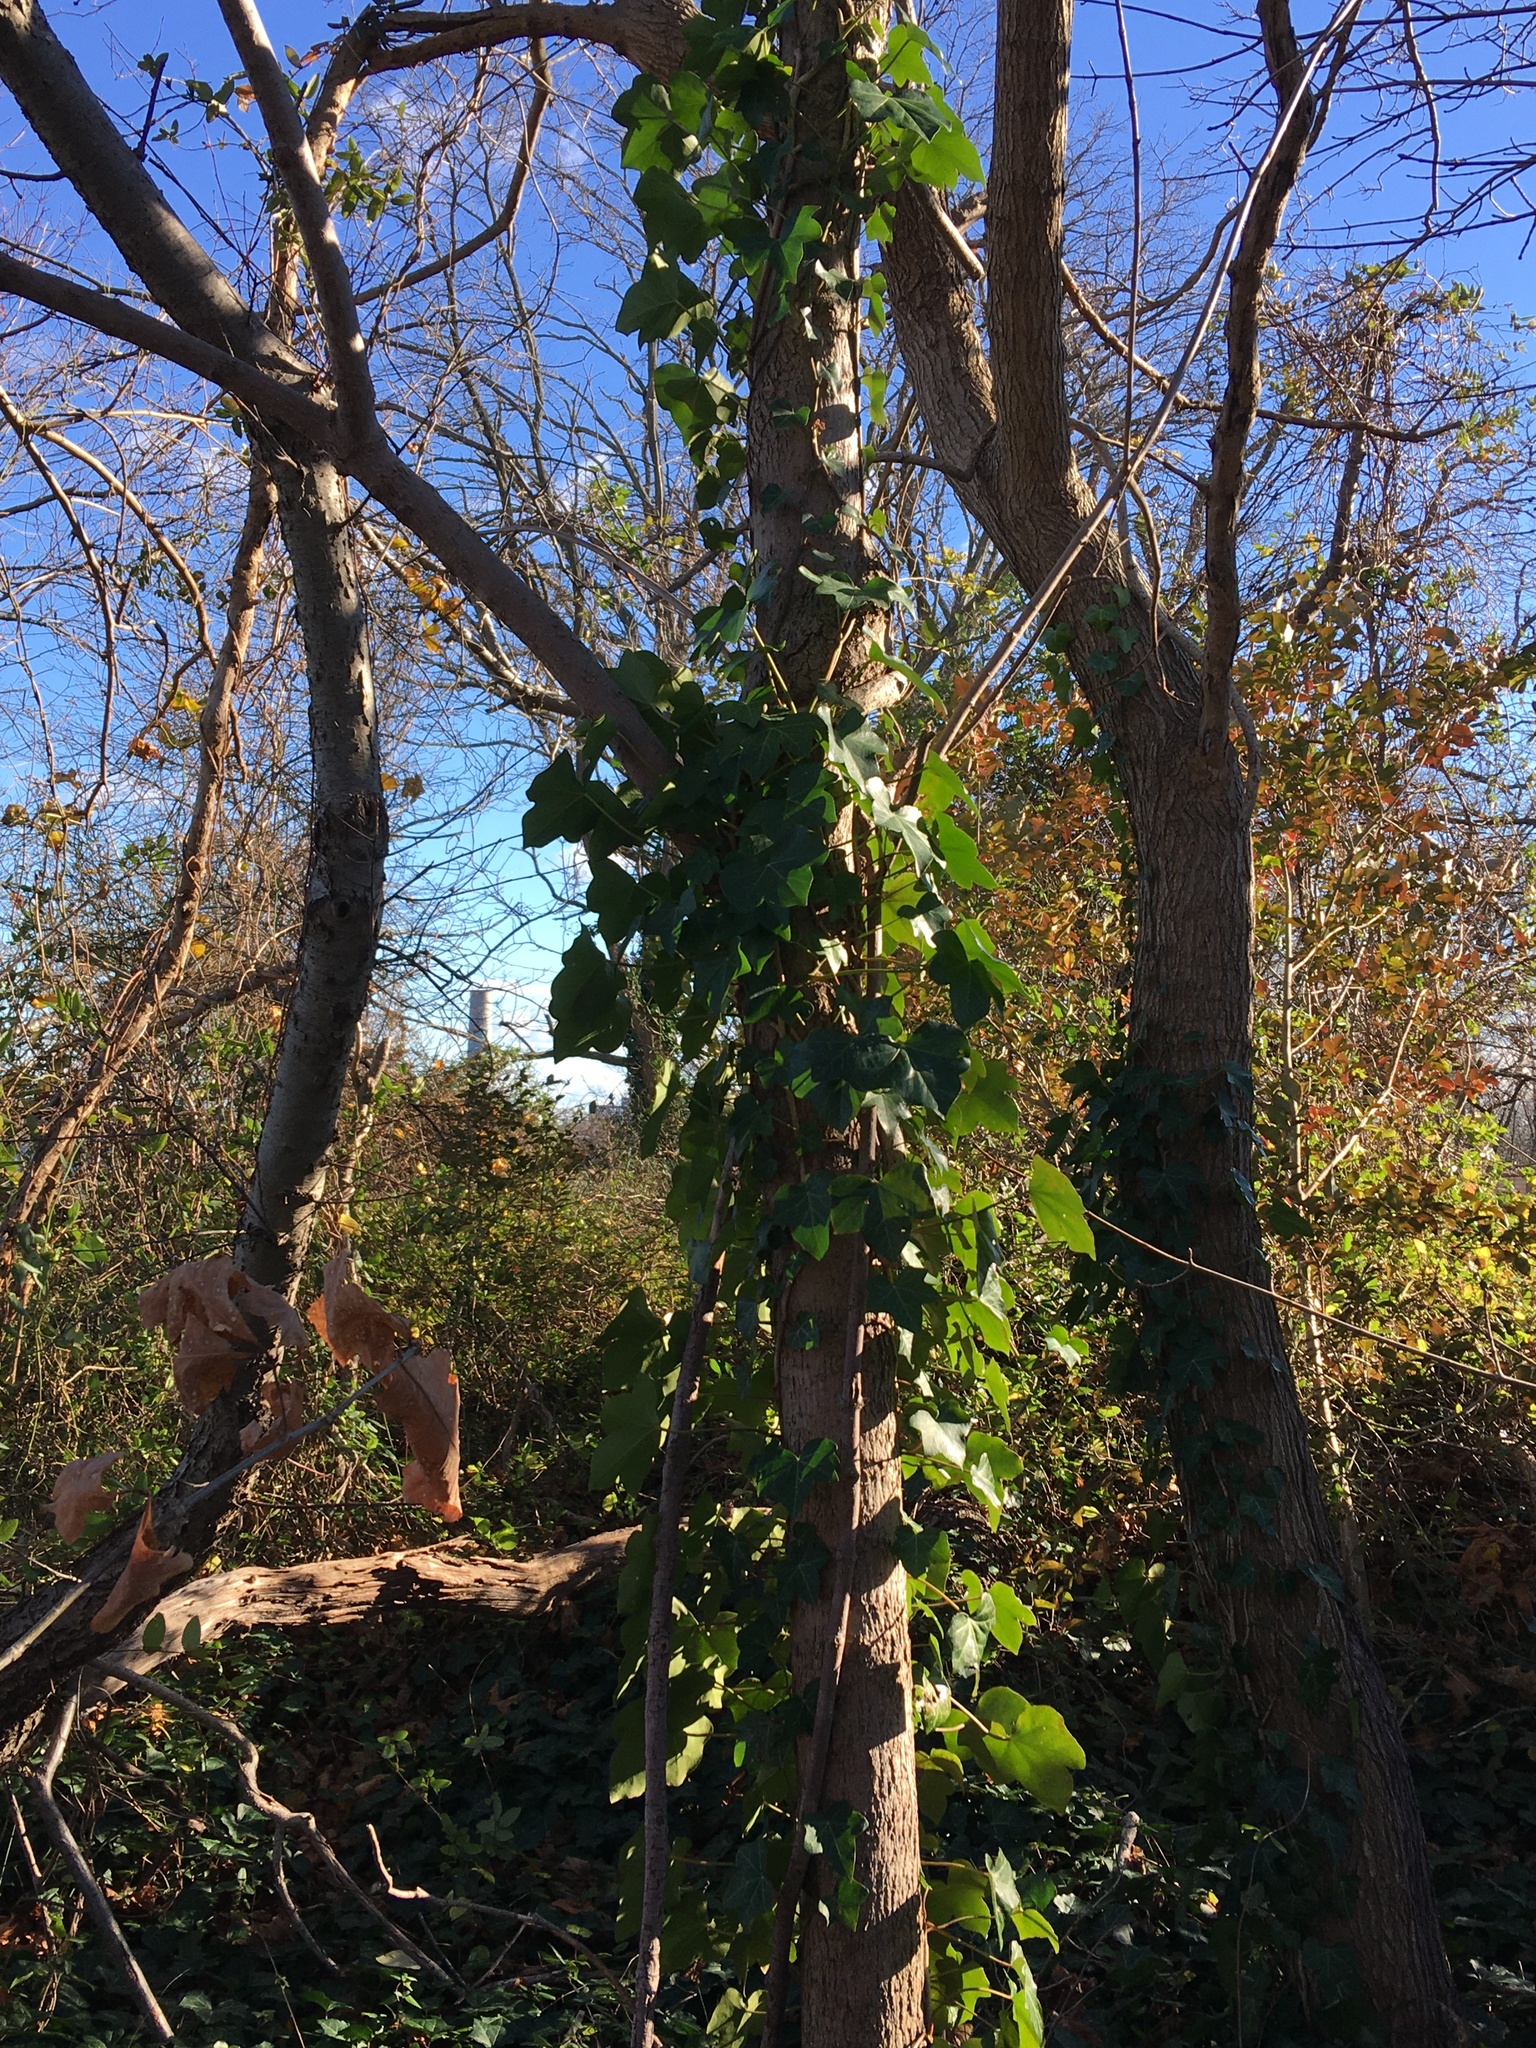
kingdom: Plantae
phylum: Tracheophyta
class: Magnoliopsida
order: Apiales
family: Araliaceae
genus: Hedera
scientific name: Hedera helix
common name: Ivy
